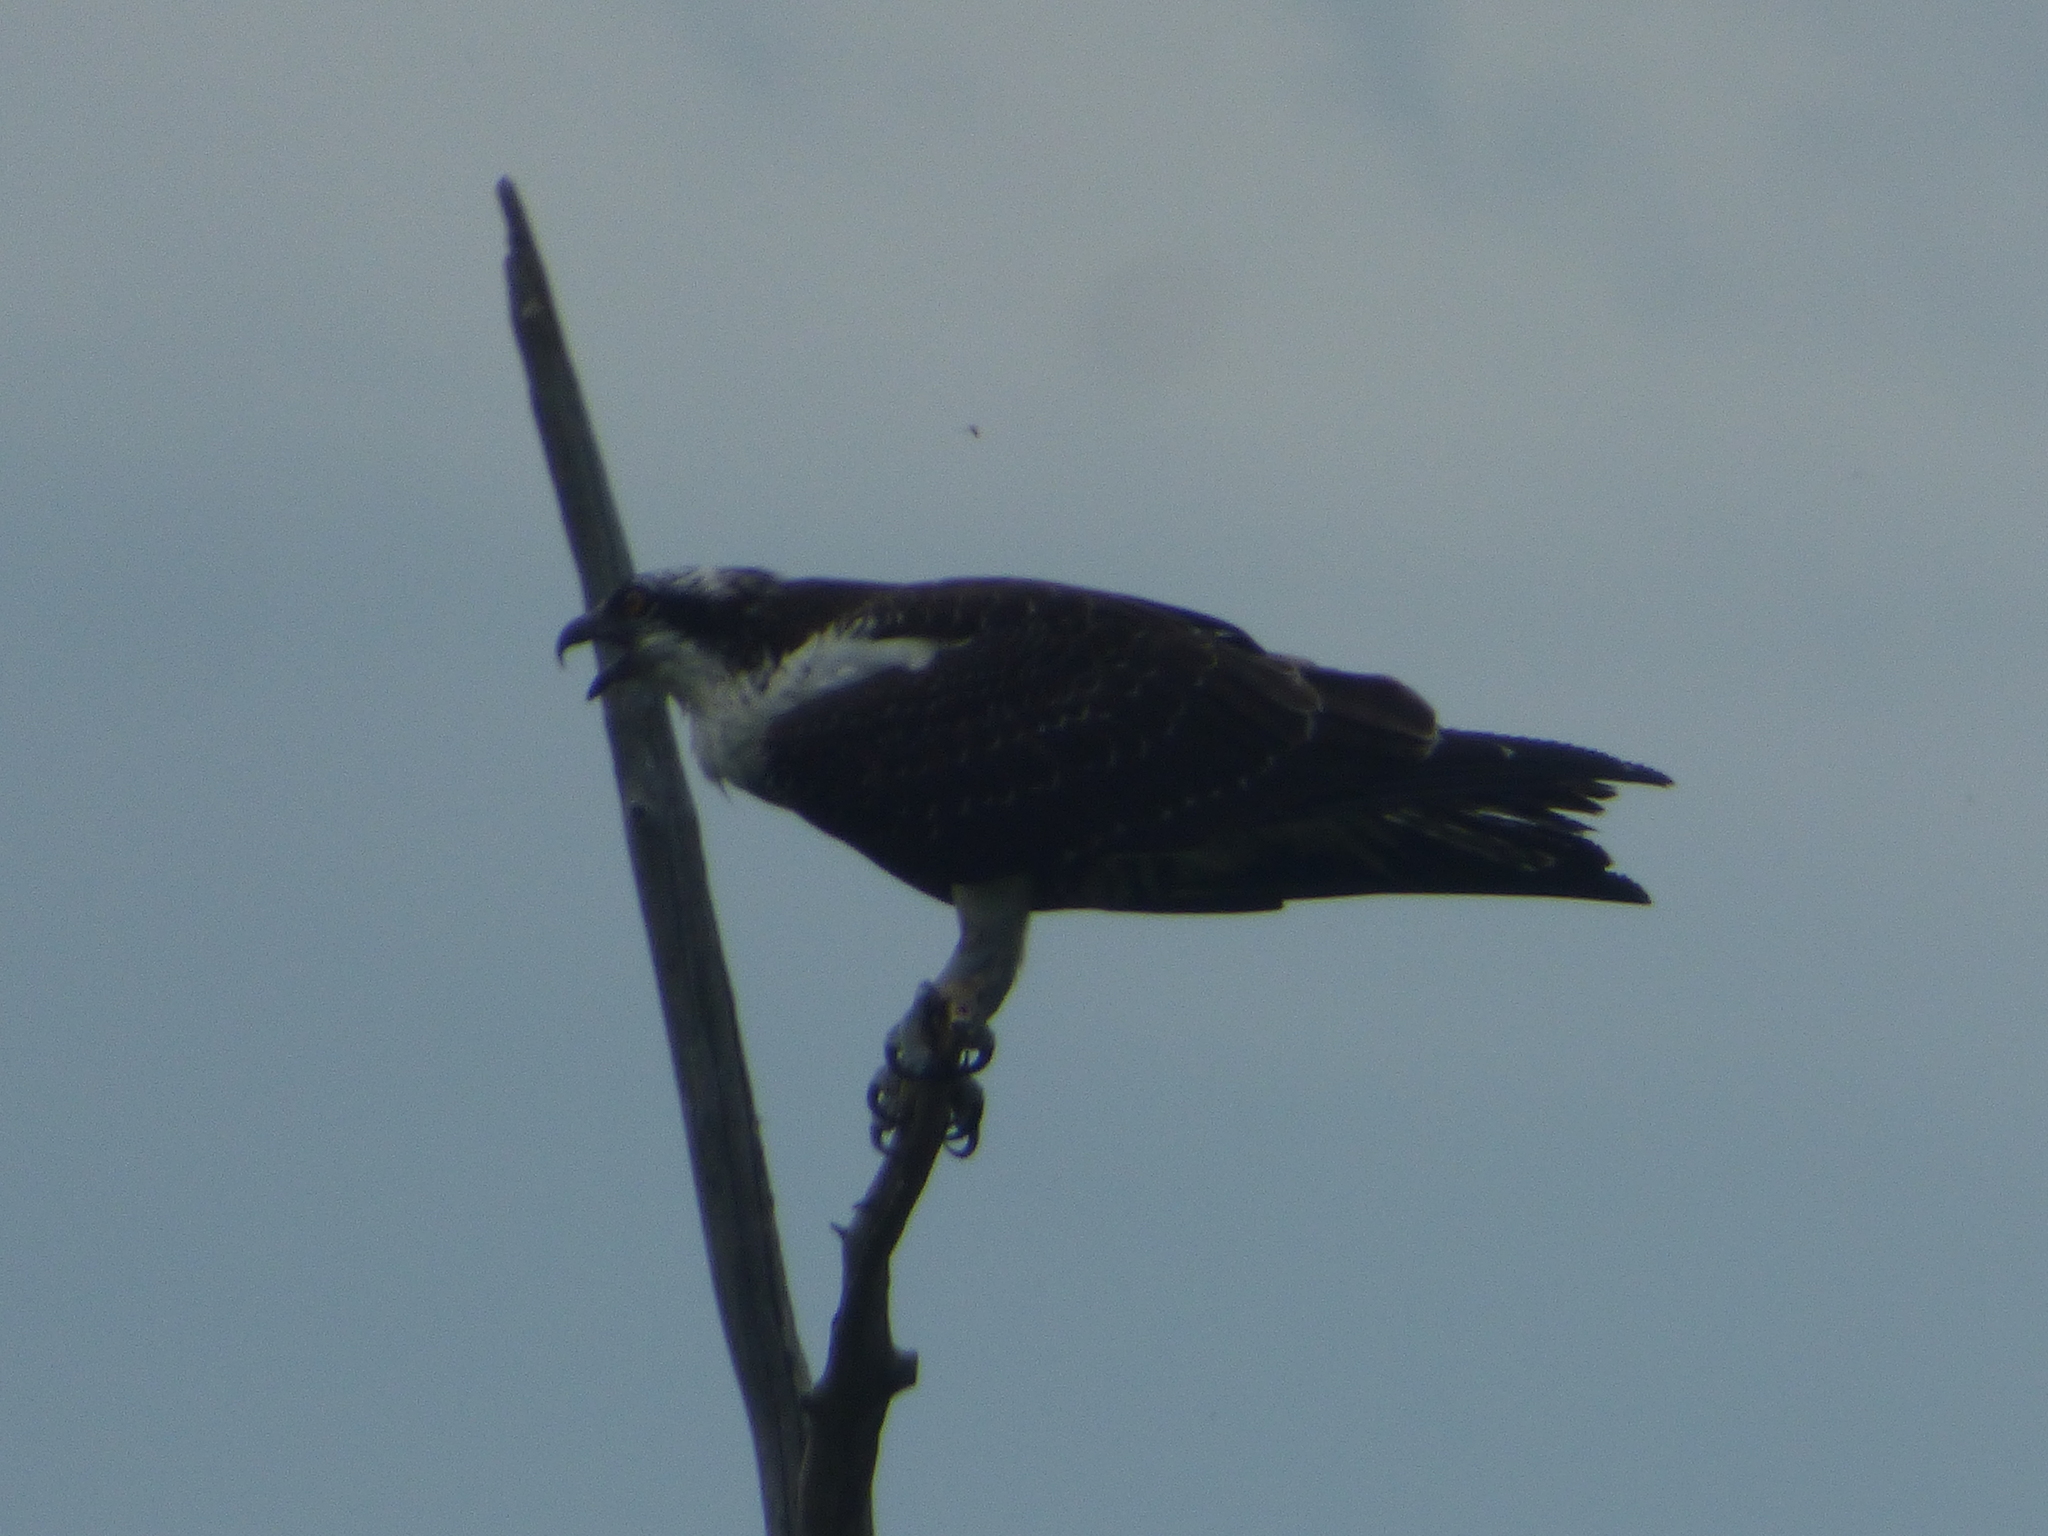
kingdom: Animalia
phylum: Chordata
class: Aves
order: Accipitriformes
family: Pandionidae
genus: Pandion
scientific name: Pandion haliaetus
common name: Osprey
